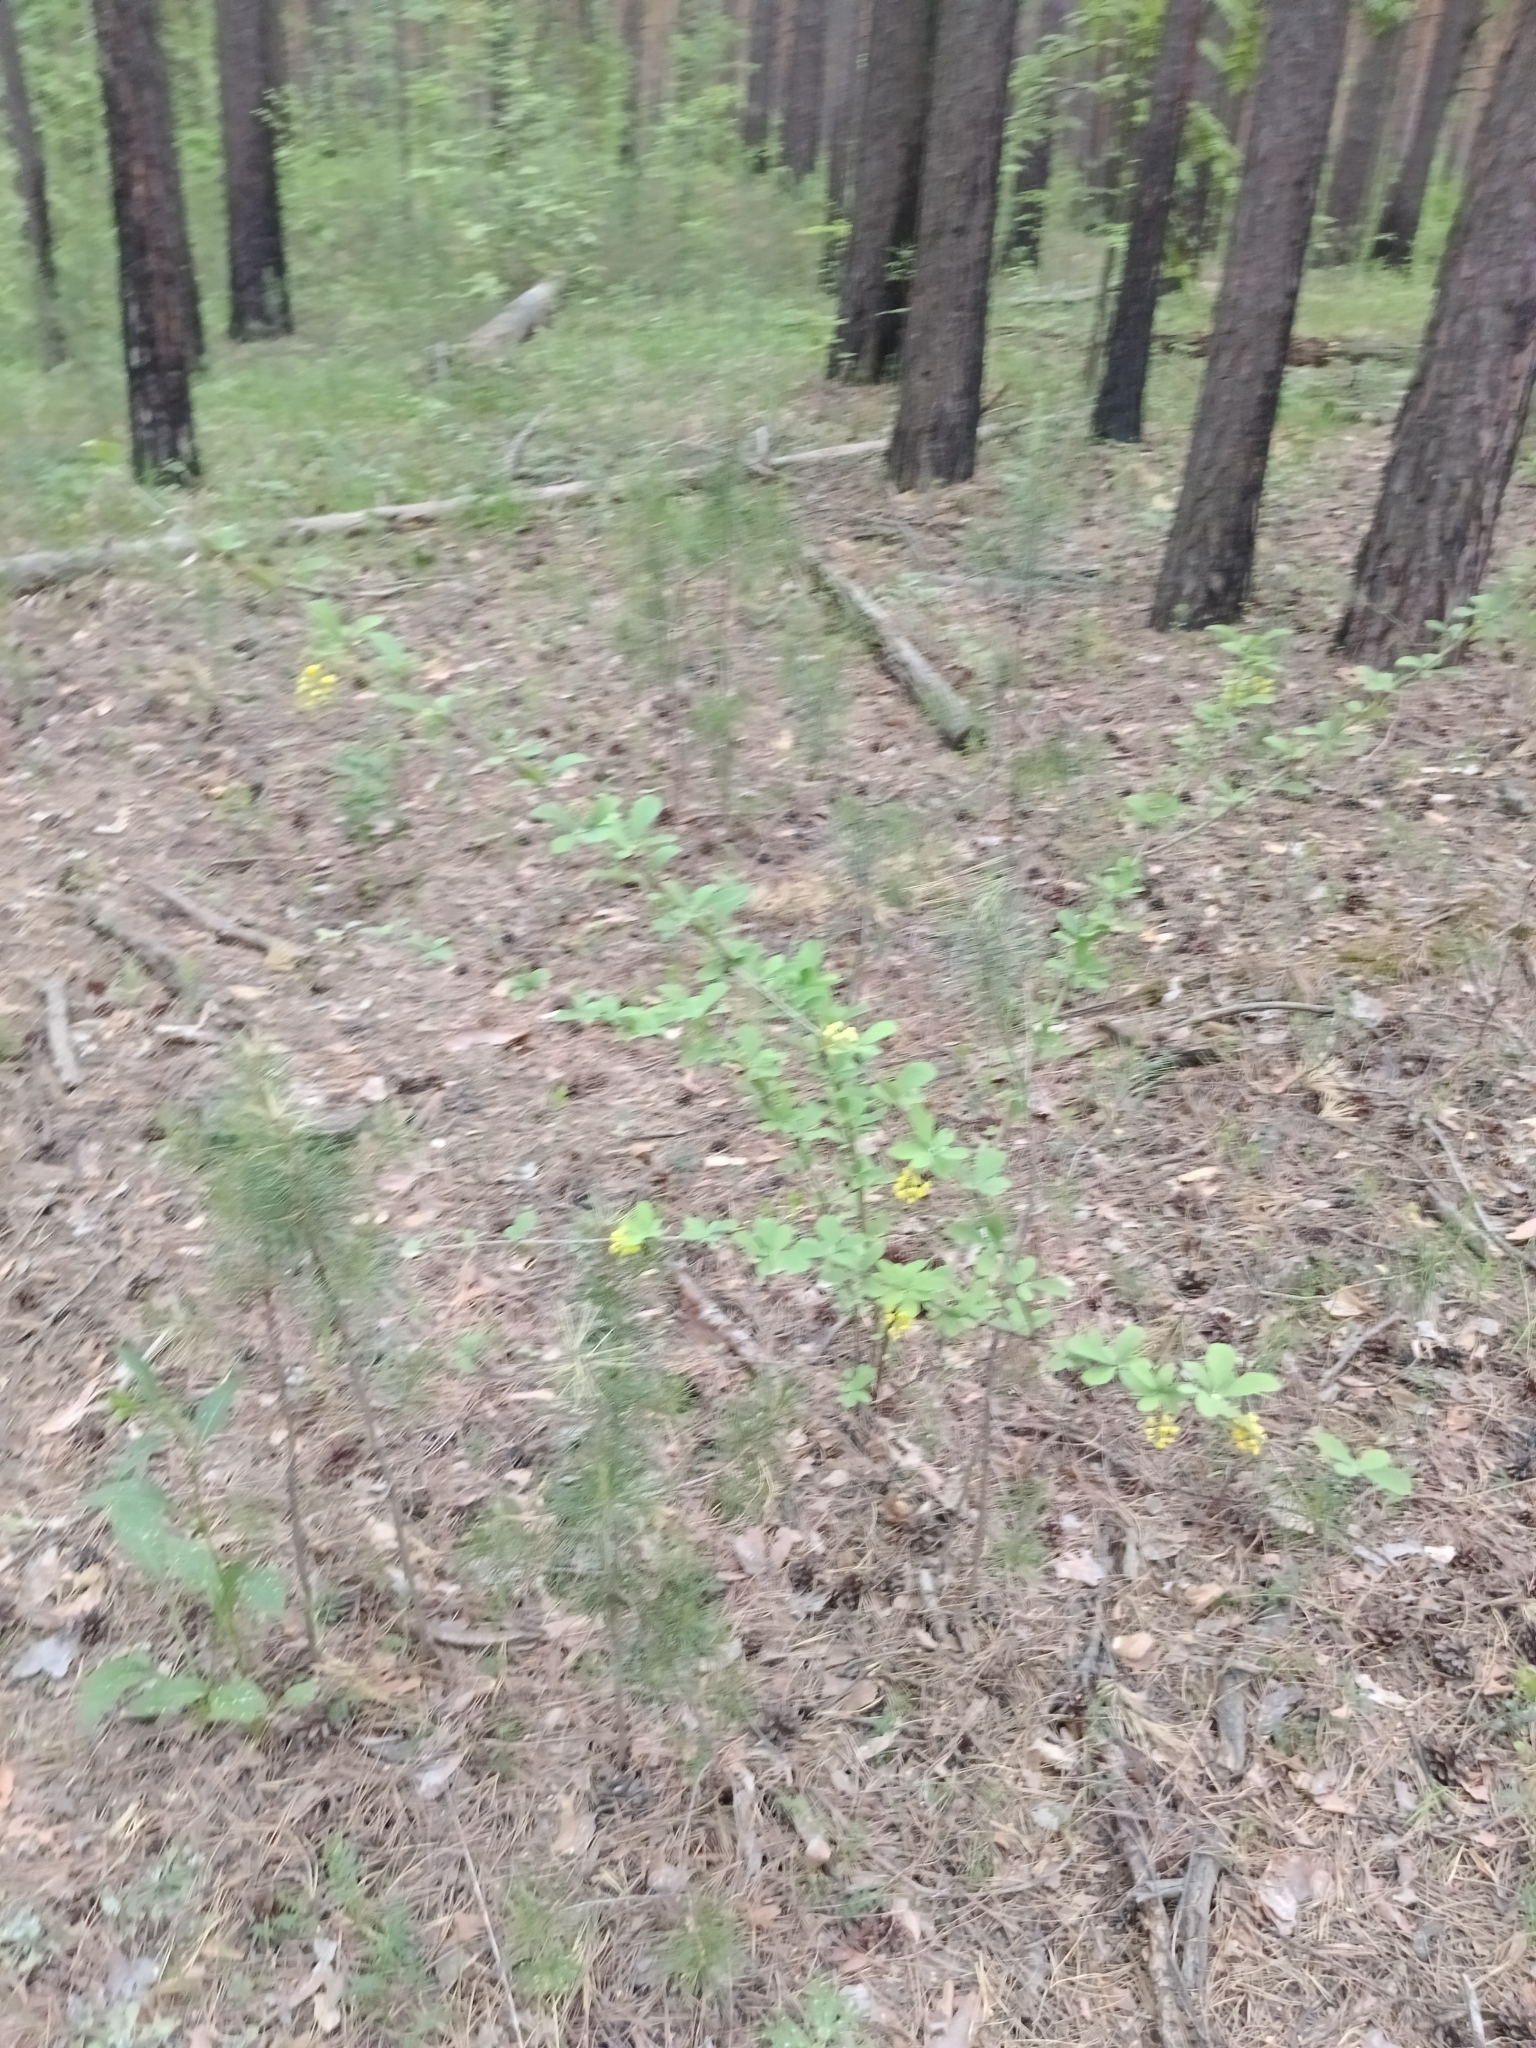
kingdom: Plantae
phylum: Tracheophyta
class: Magnoliopsida
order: Ranunculales
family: Berberidaceae
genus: Berberis
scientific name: Berberis vulgaris
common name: Barberry
